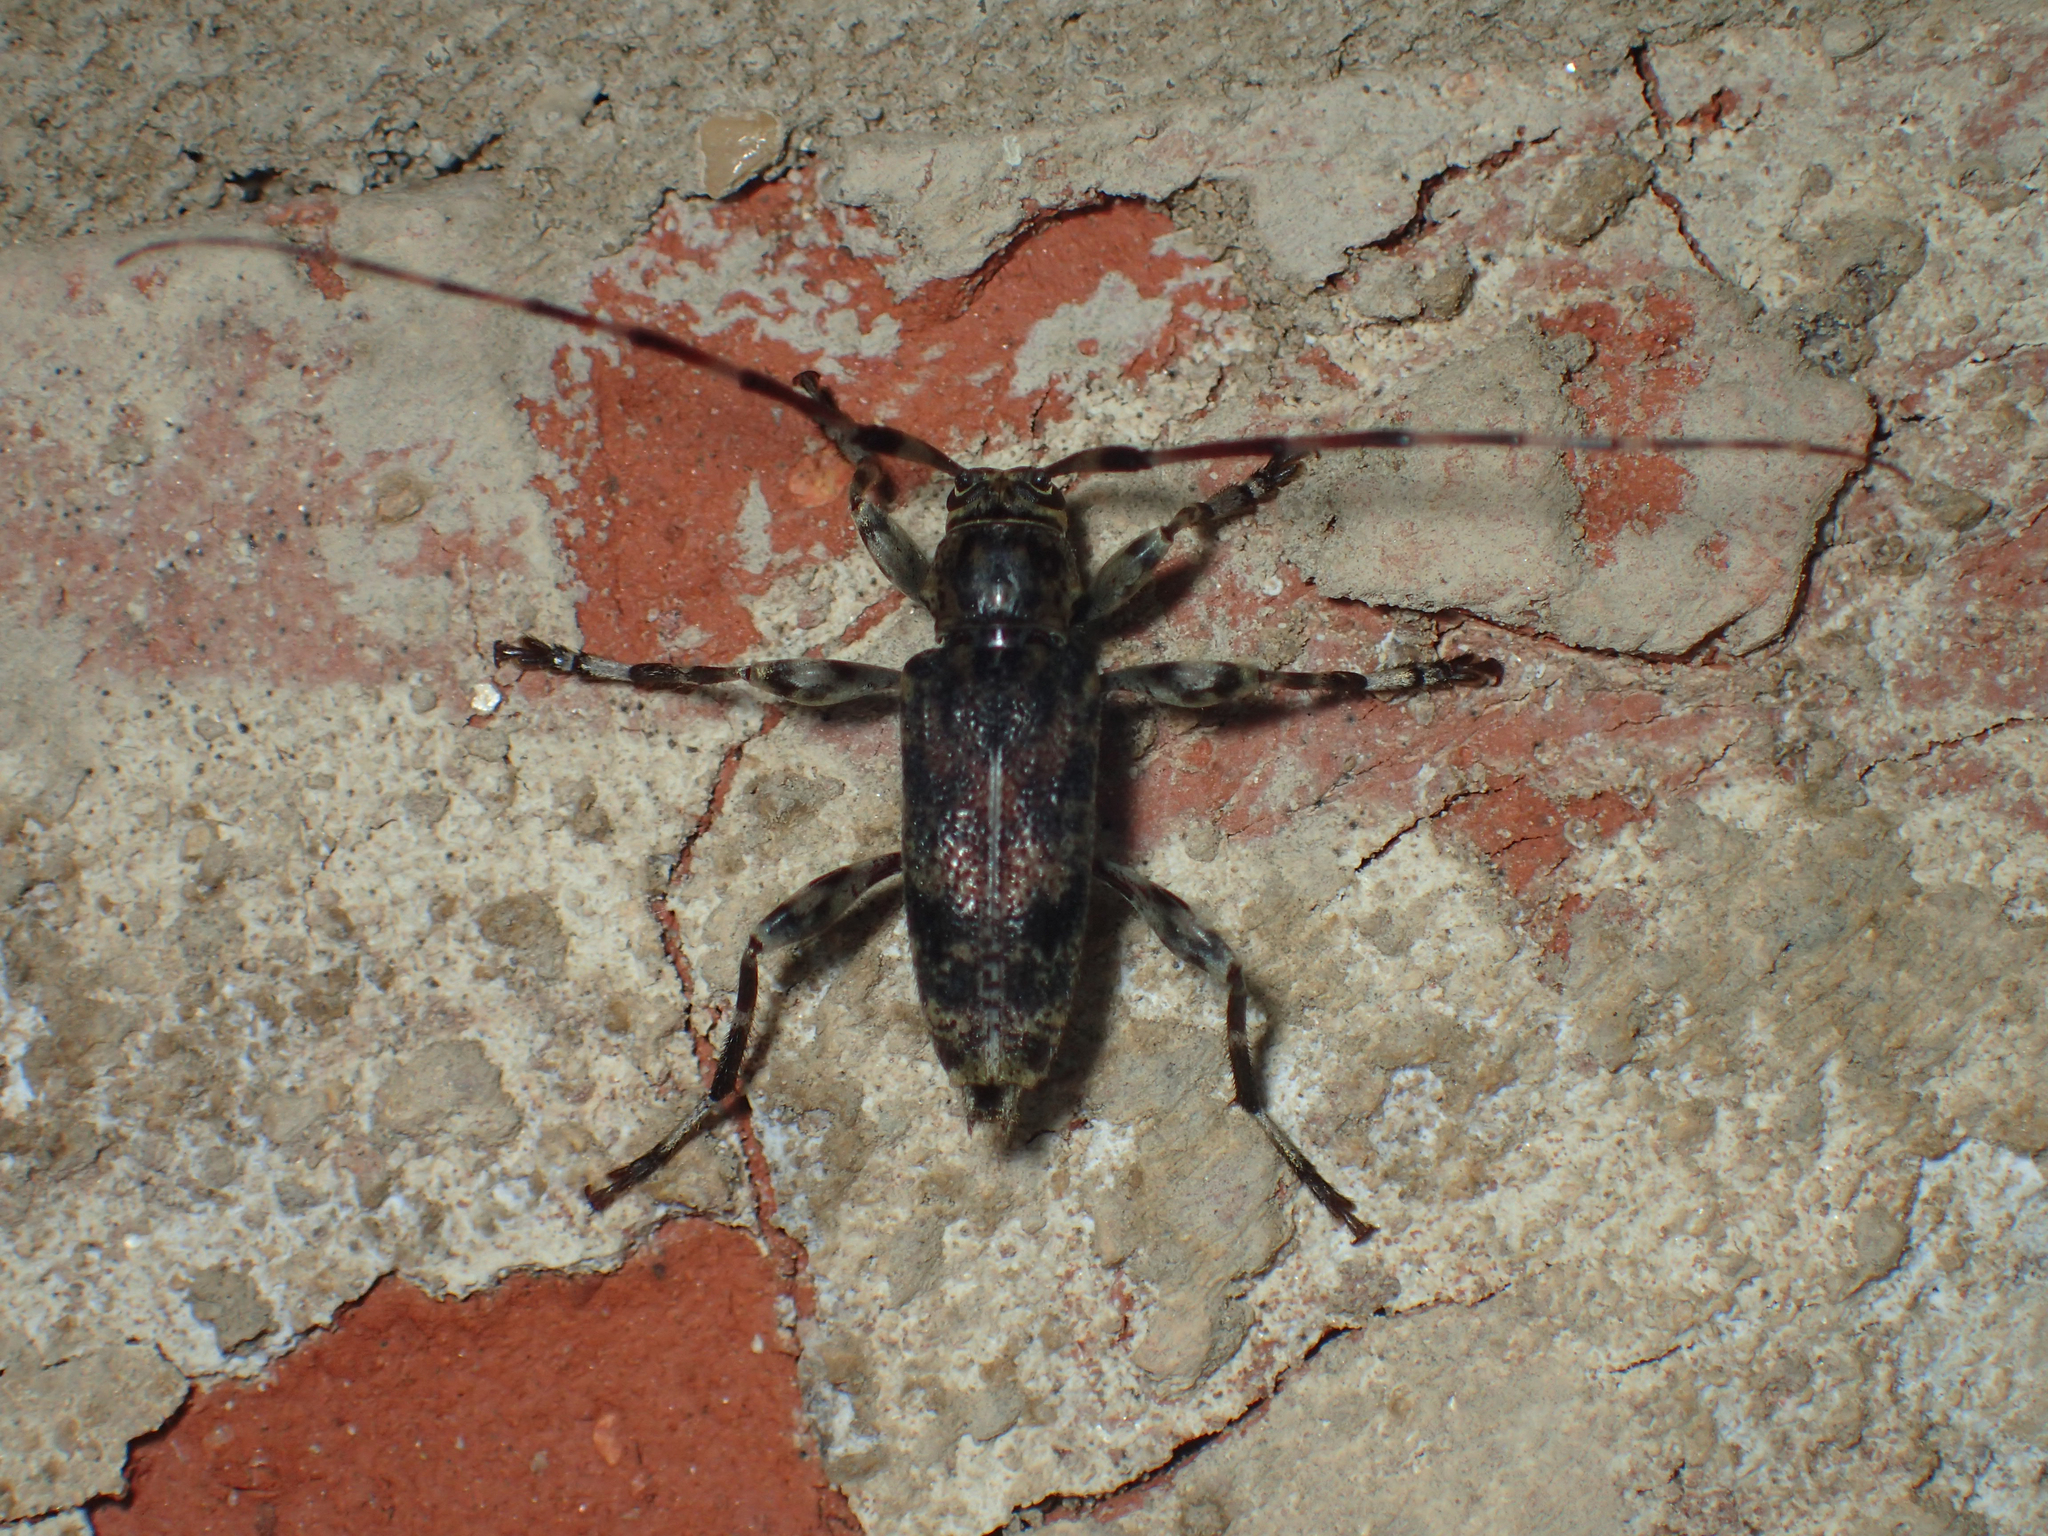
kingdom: Animalia
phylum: Arthropoda
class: Insecta
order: Coleoptera
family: Cerambycidae
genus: Graphisurus
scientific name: Graphisurus fasciatus
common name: Banded graphisurus
